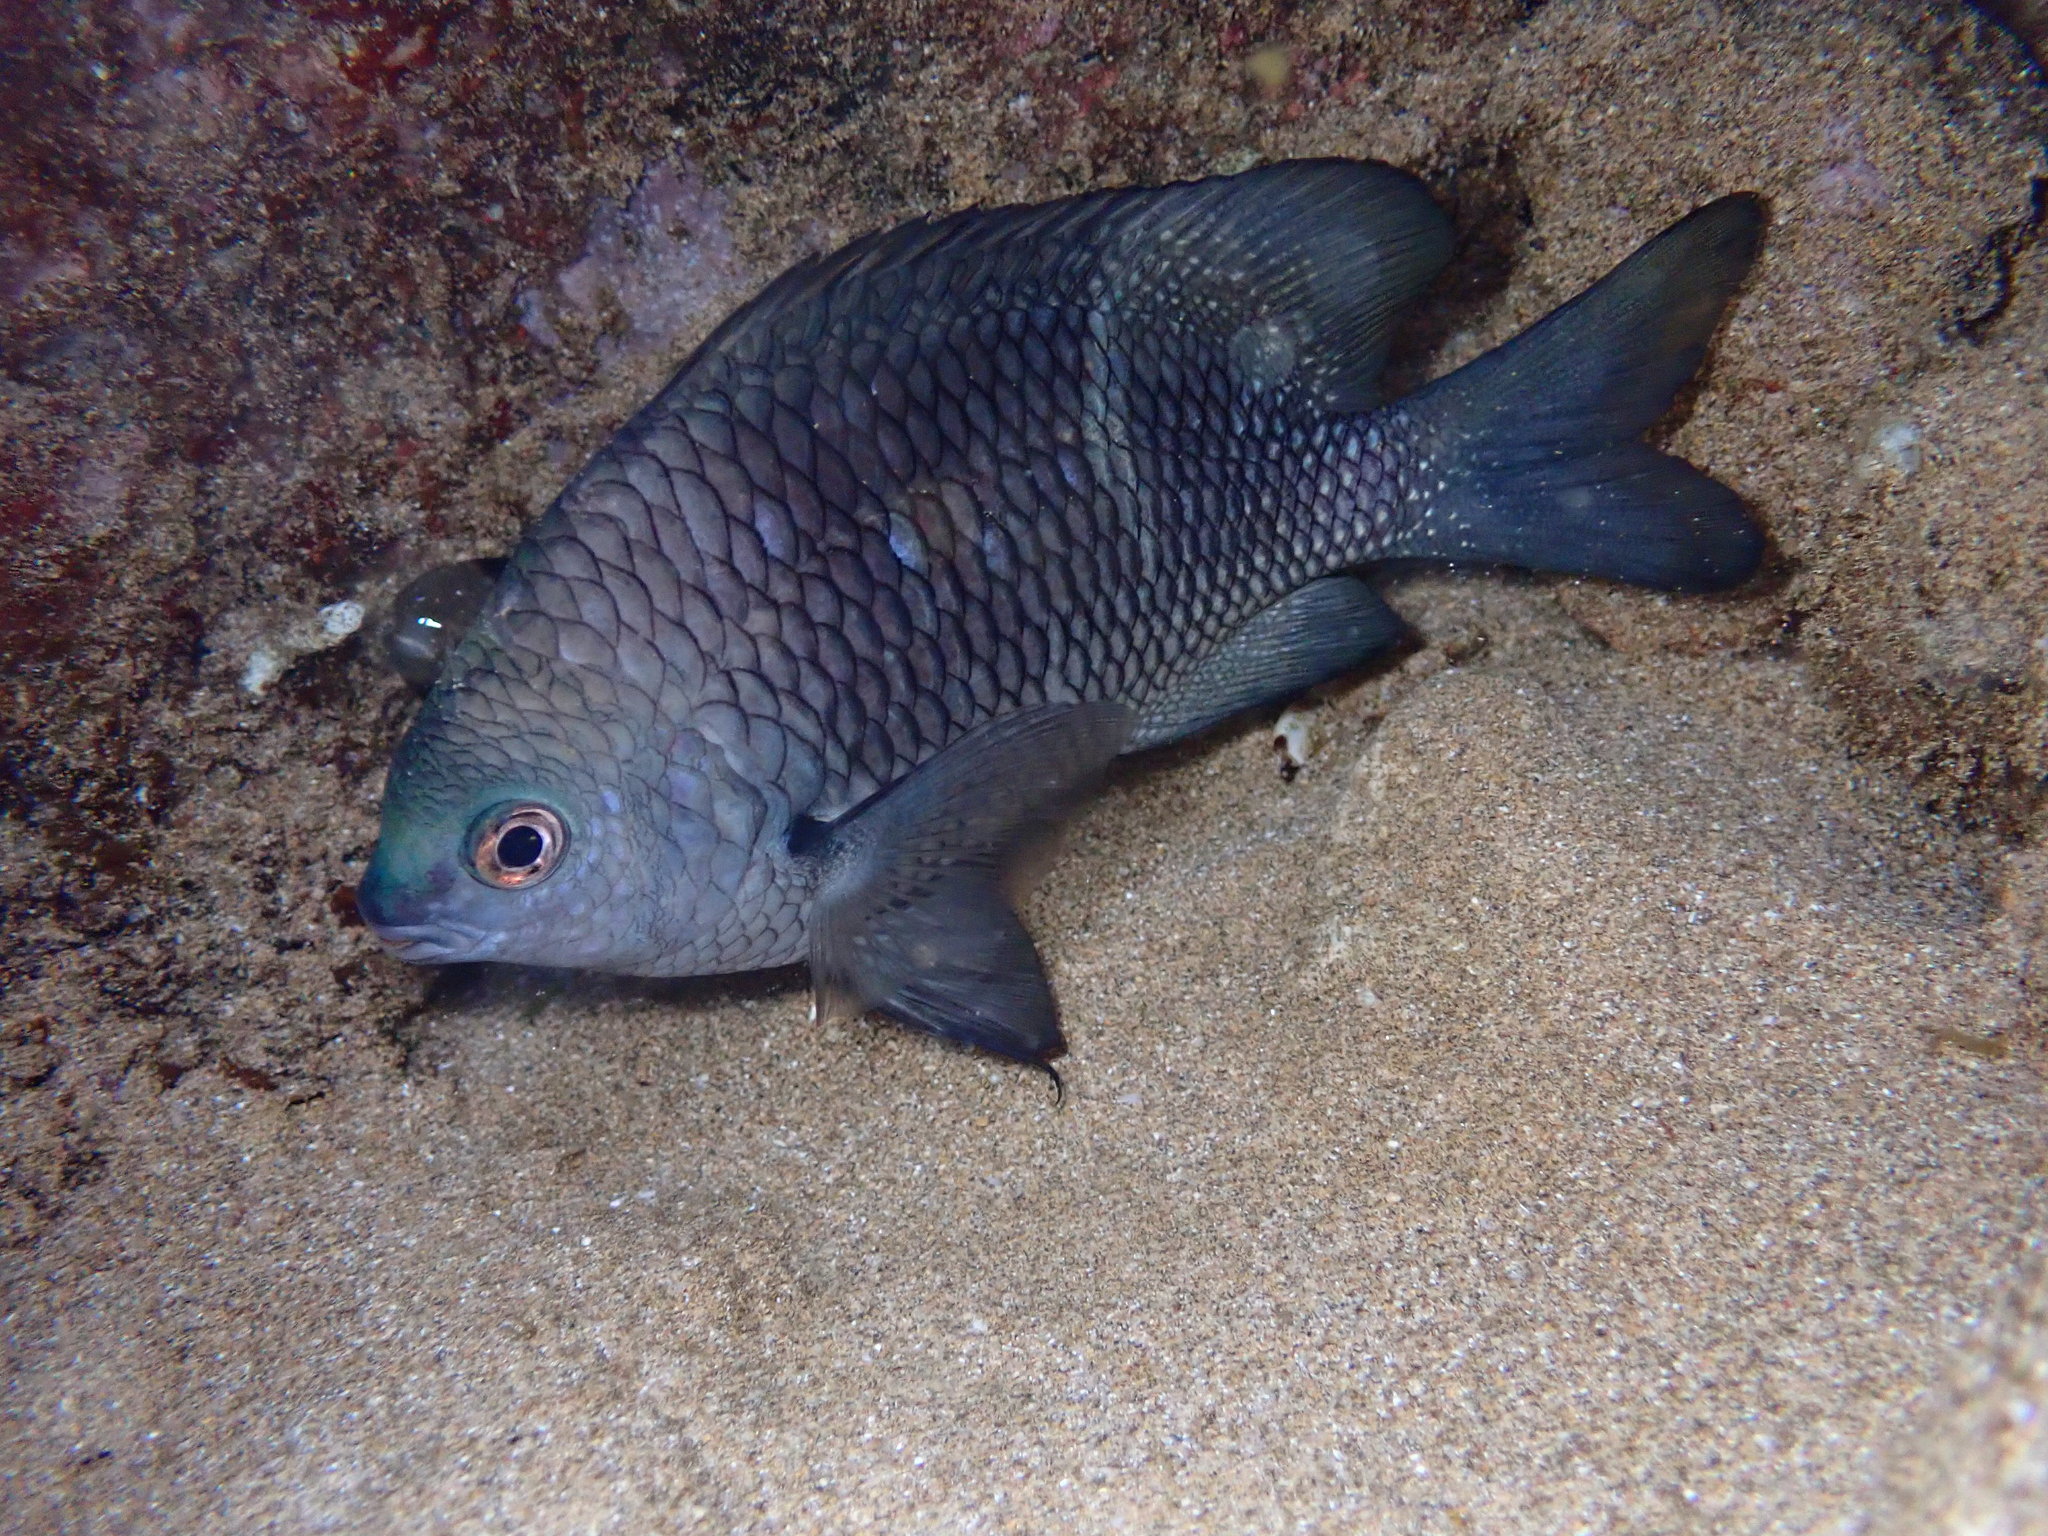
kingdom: Animalia
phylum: Chordata
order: Perciformes
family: Pomacentridae
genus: Plectroglyphidodon
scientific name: Plectroglyphidodon sindonis
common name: Hawaiian rock damsel
